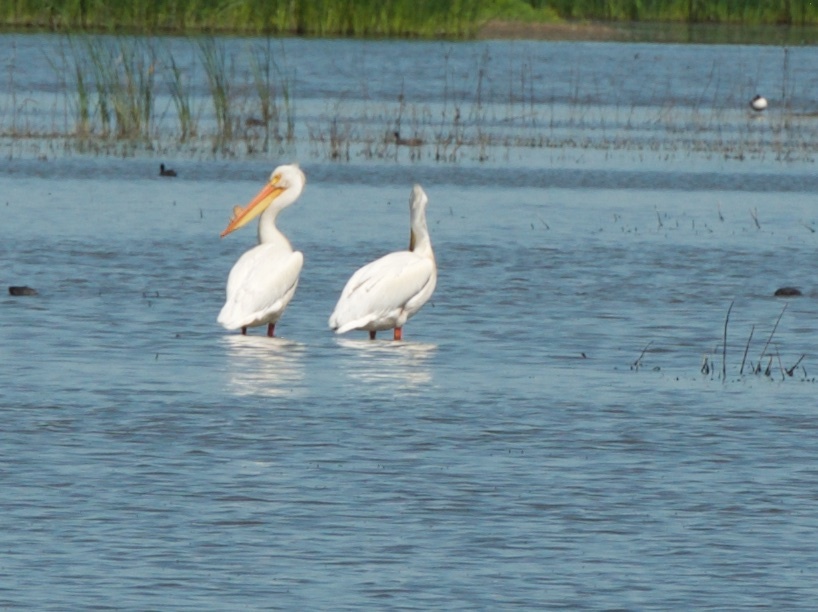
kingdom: Animalia
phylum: Chordata
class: Aves
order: Pelecaniformes
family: Pelecanidae
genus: Pelecanus
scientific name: Pelecanus erythrorhynchos
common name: American white pelican
